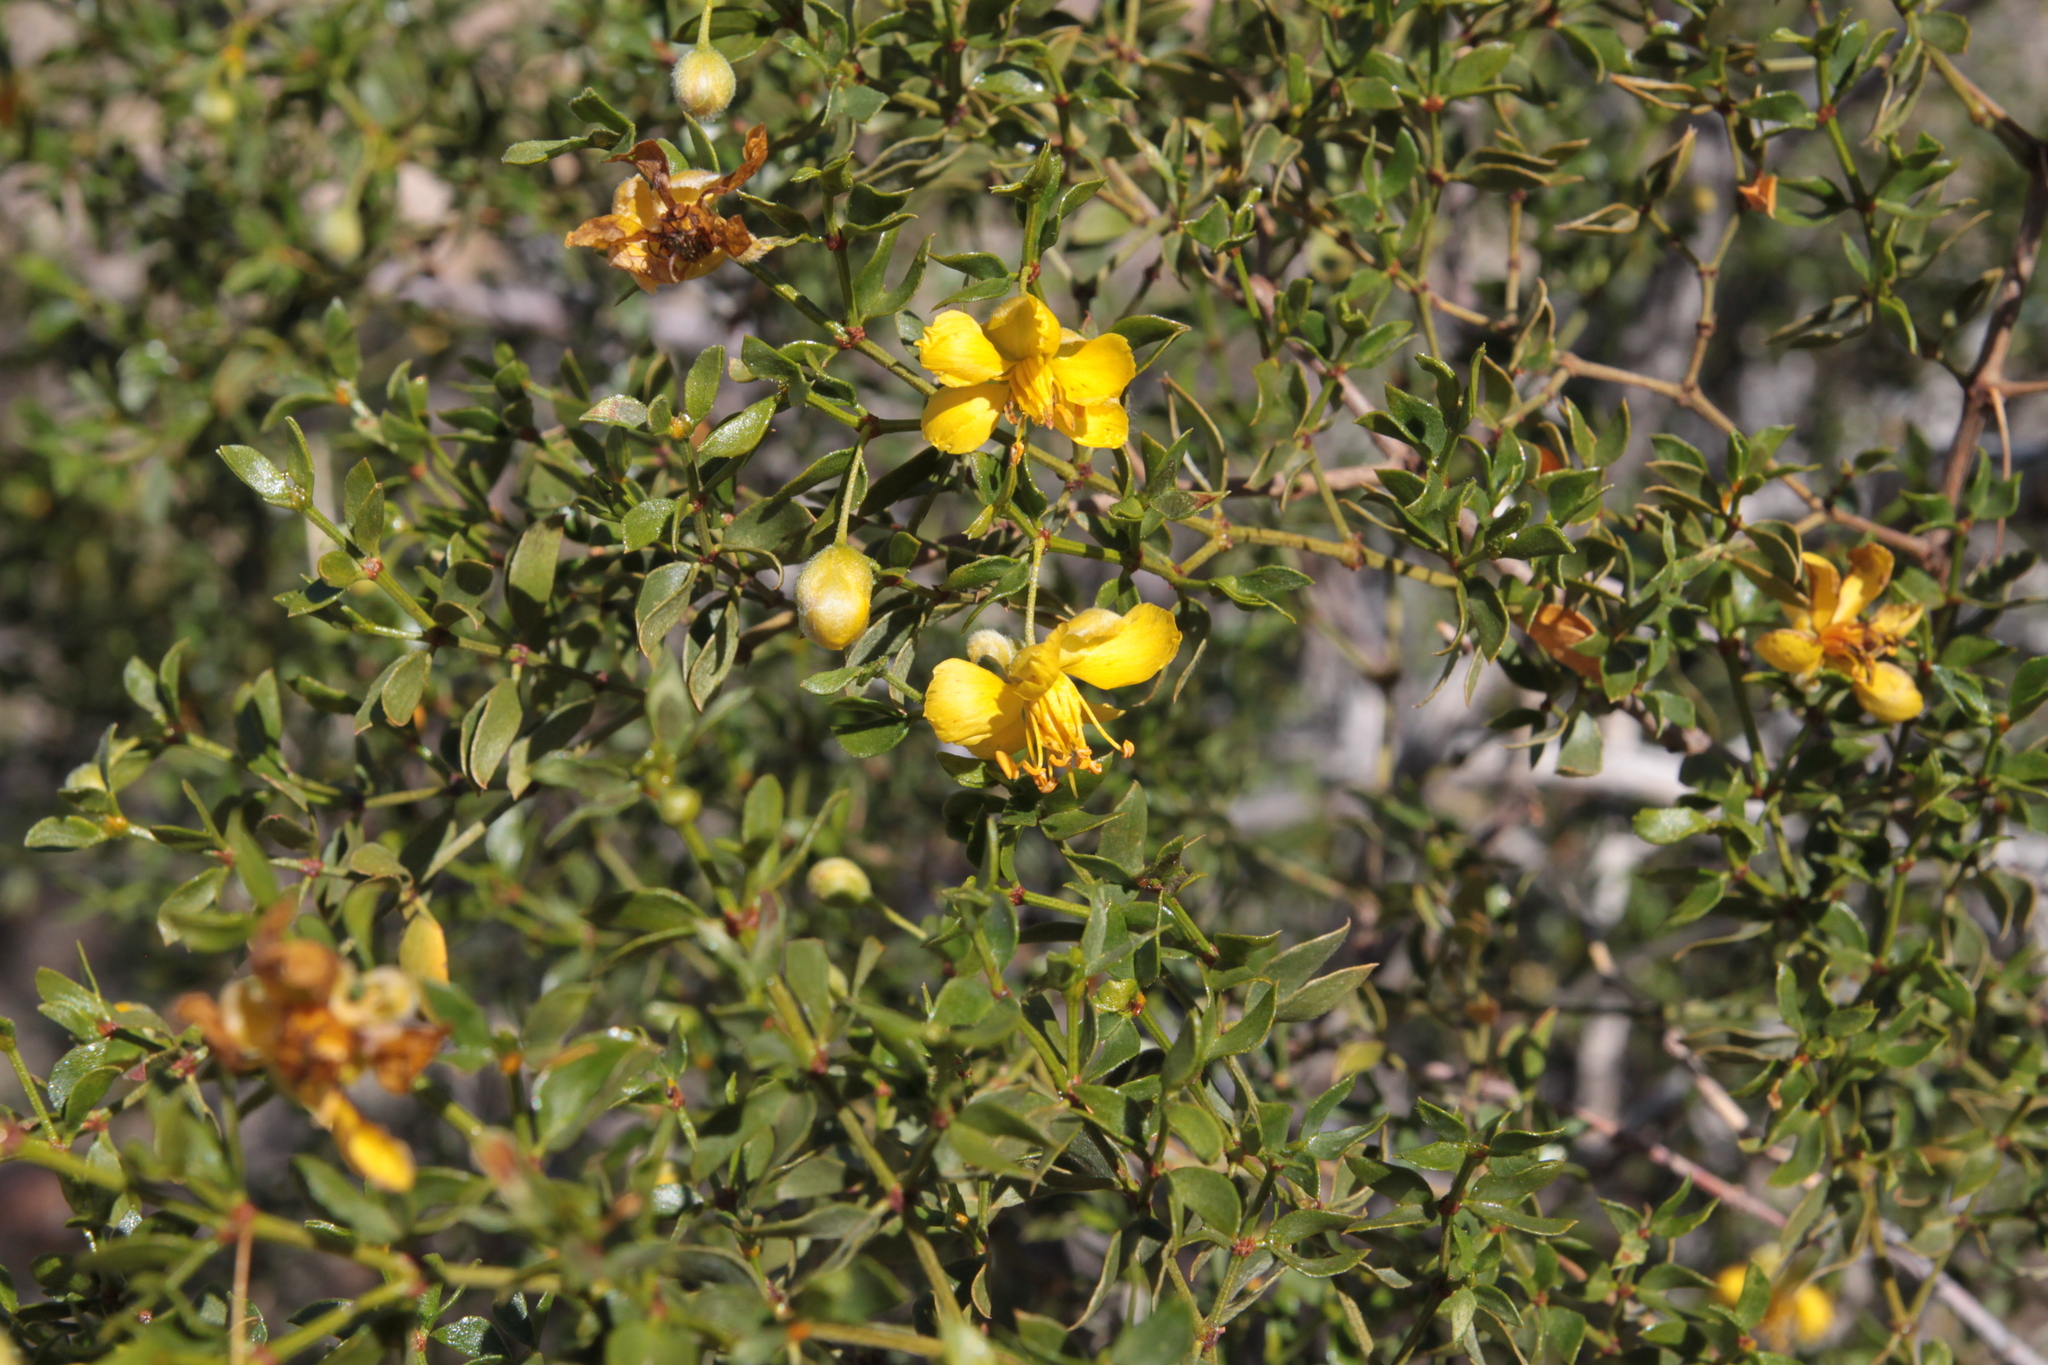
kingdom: Plantae
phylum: Tracheophyta
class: Magnoliopsida
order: Zygophyllales
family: Zygophyllaceae
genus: Larrea
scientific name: Larrea tridentata
